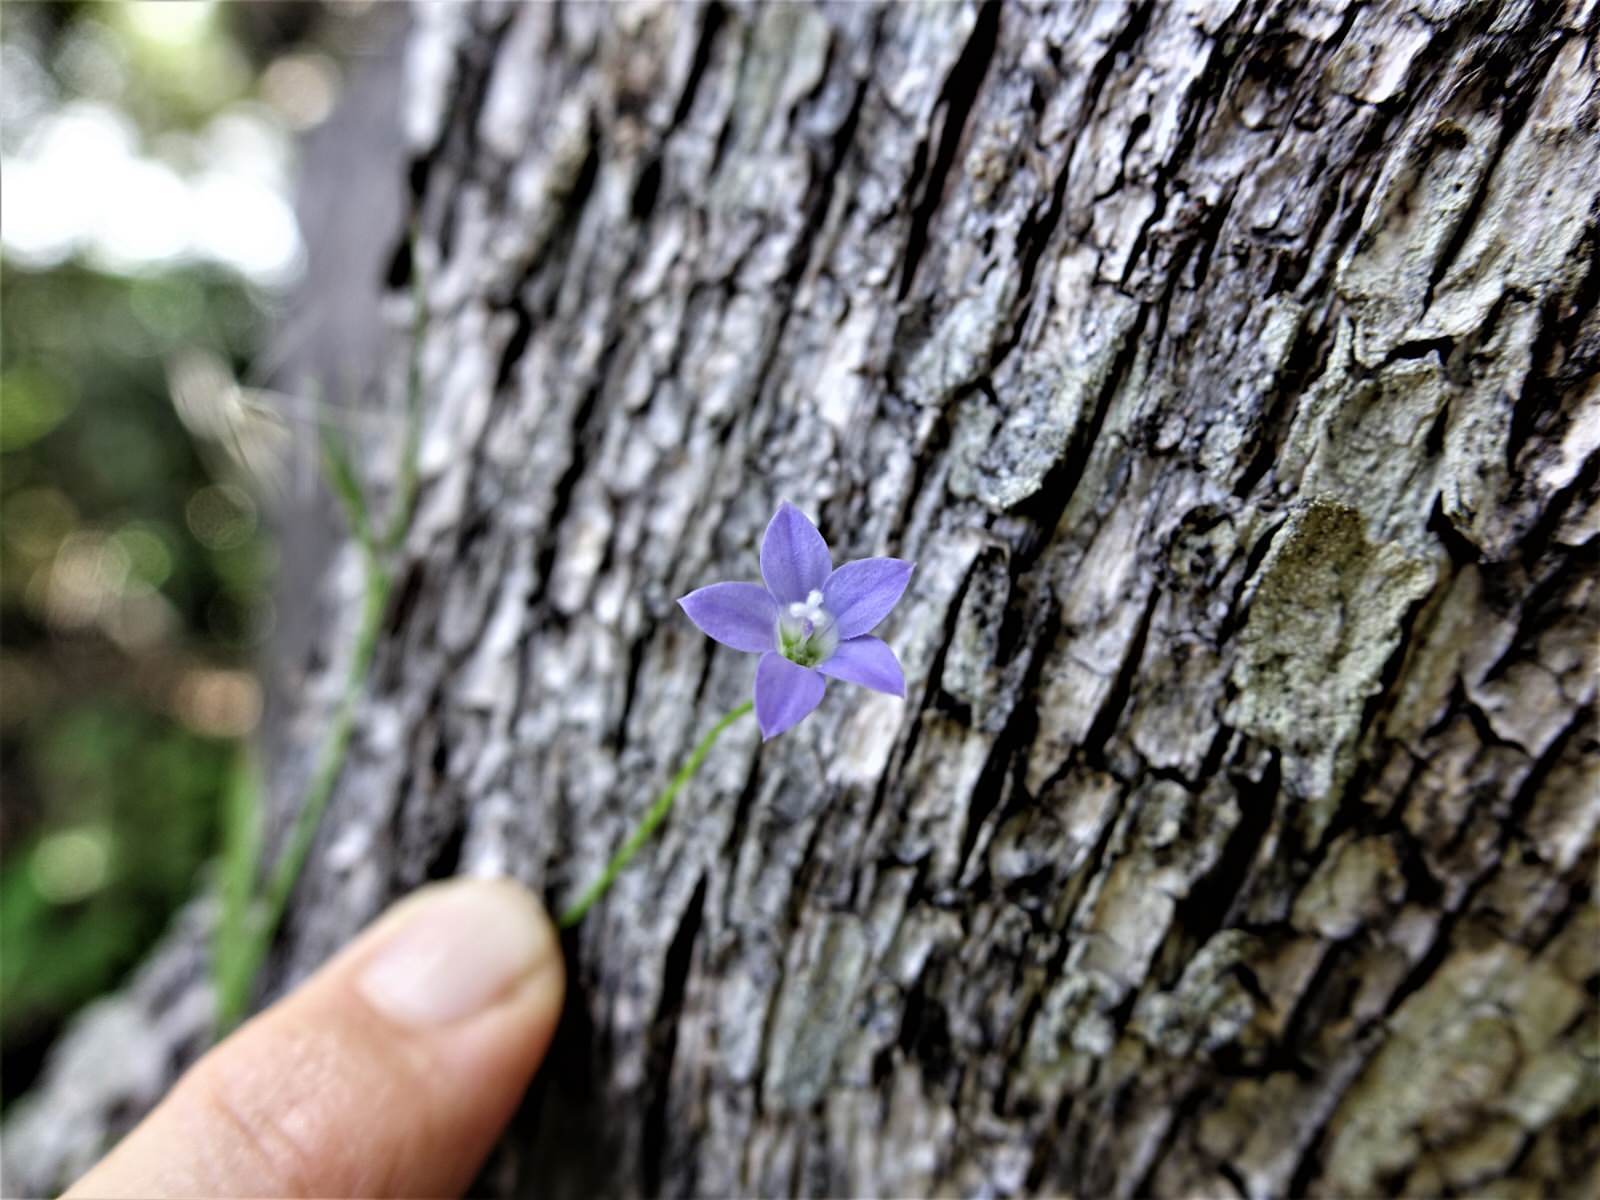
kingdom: Plantae
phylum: Tracheophyta
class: Magnoliopsida
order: Asterales
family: Campanulaceae
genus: Wahlenbergia
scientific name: Wahlenbergia violacea
